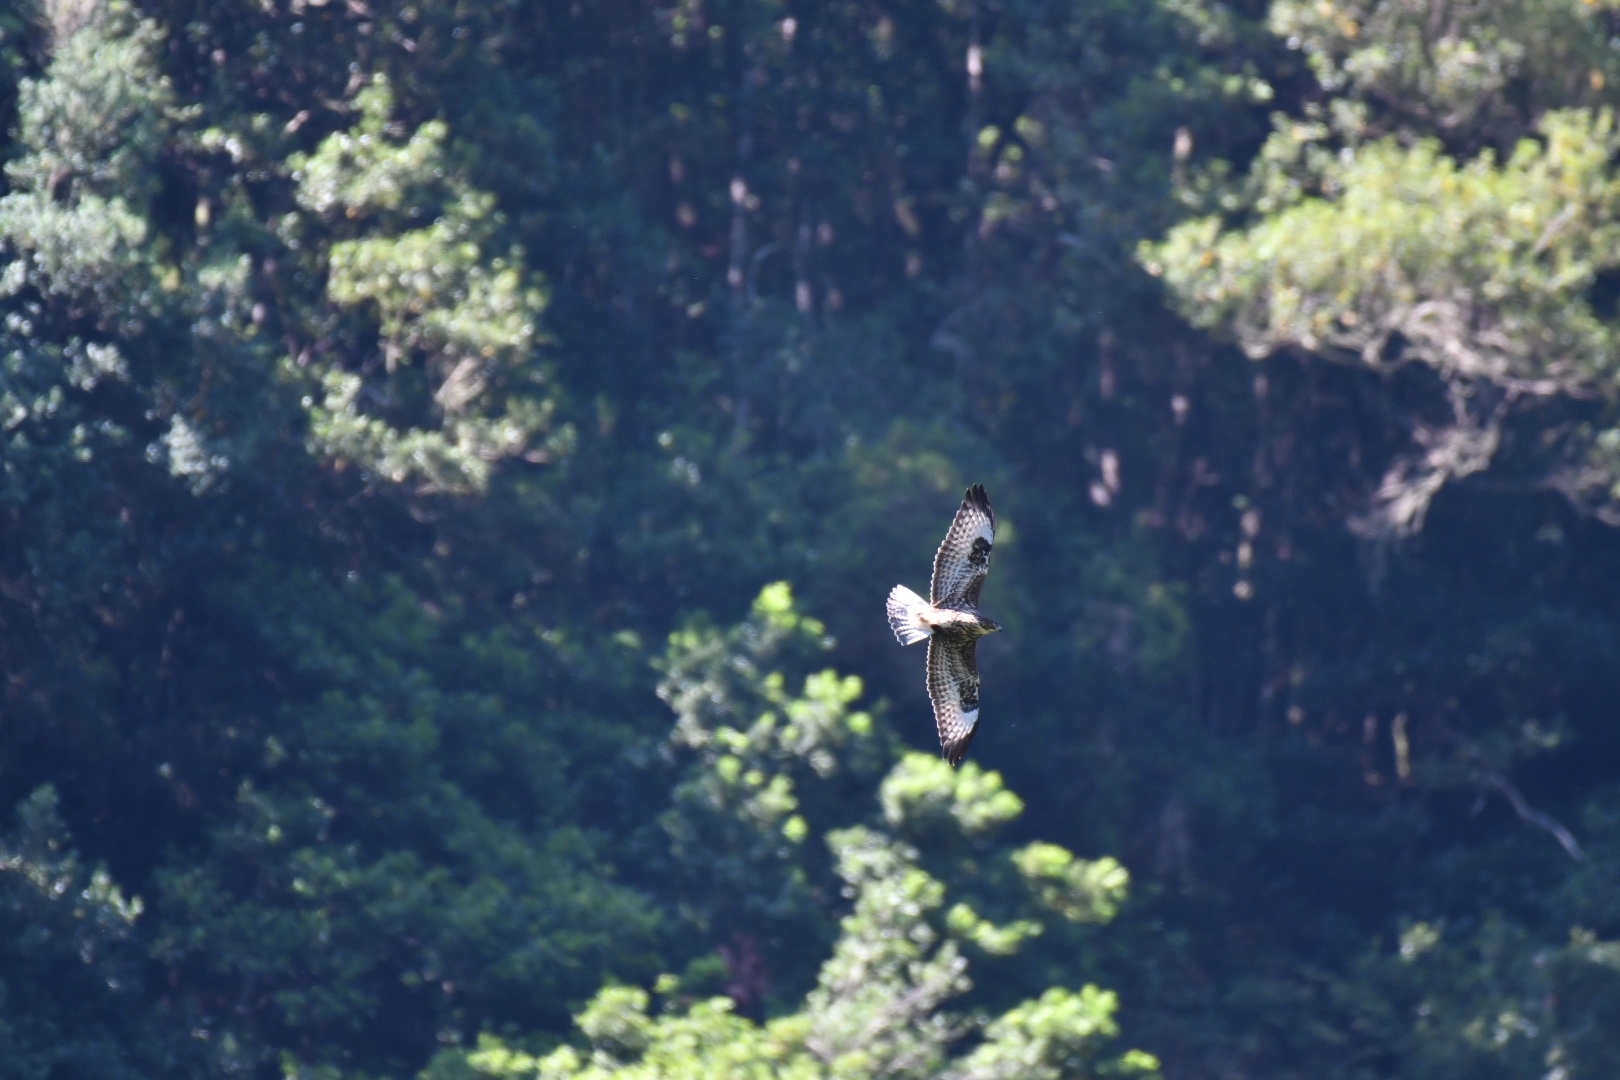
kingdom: Animalia
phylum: Chordata
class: Aves
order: Accipitriformes
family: Accipitridae
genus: Buteo
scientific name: Buteo buteo
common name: Common buzzard
